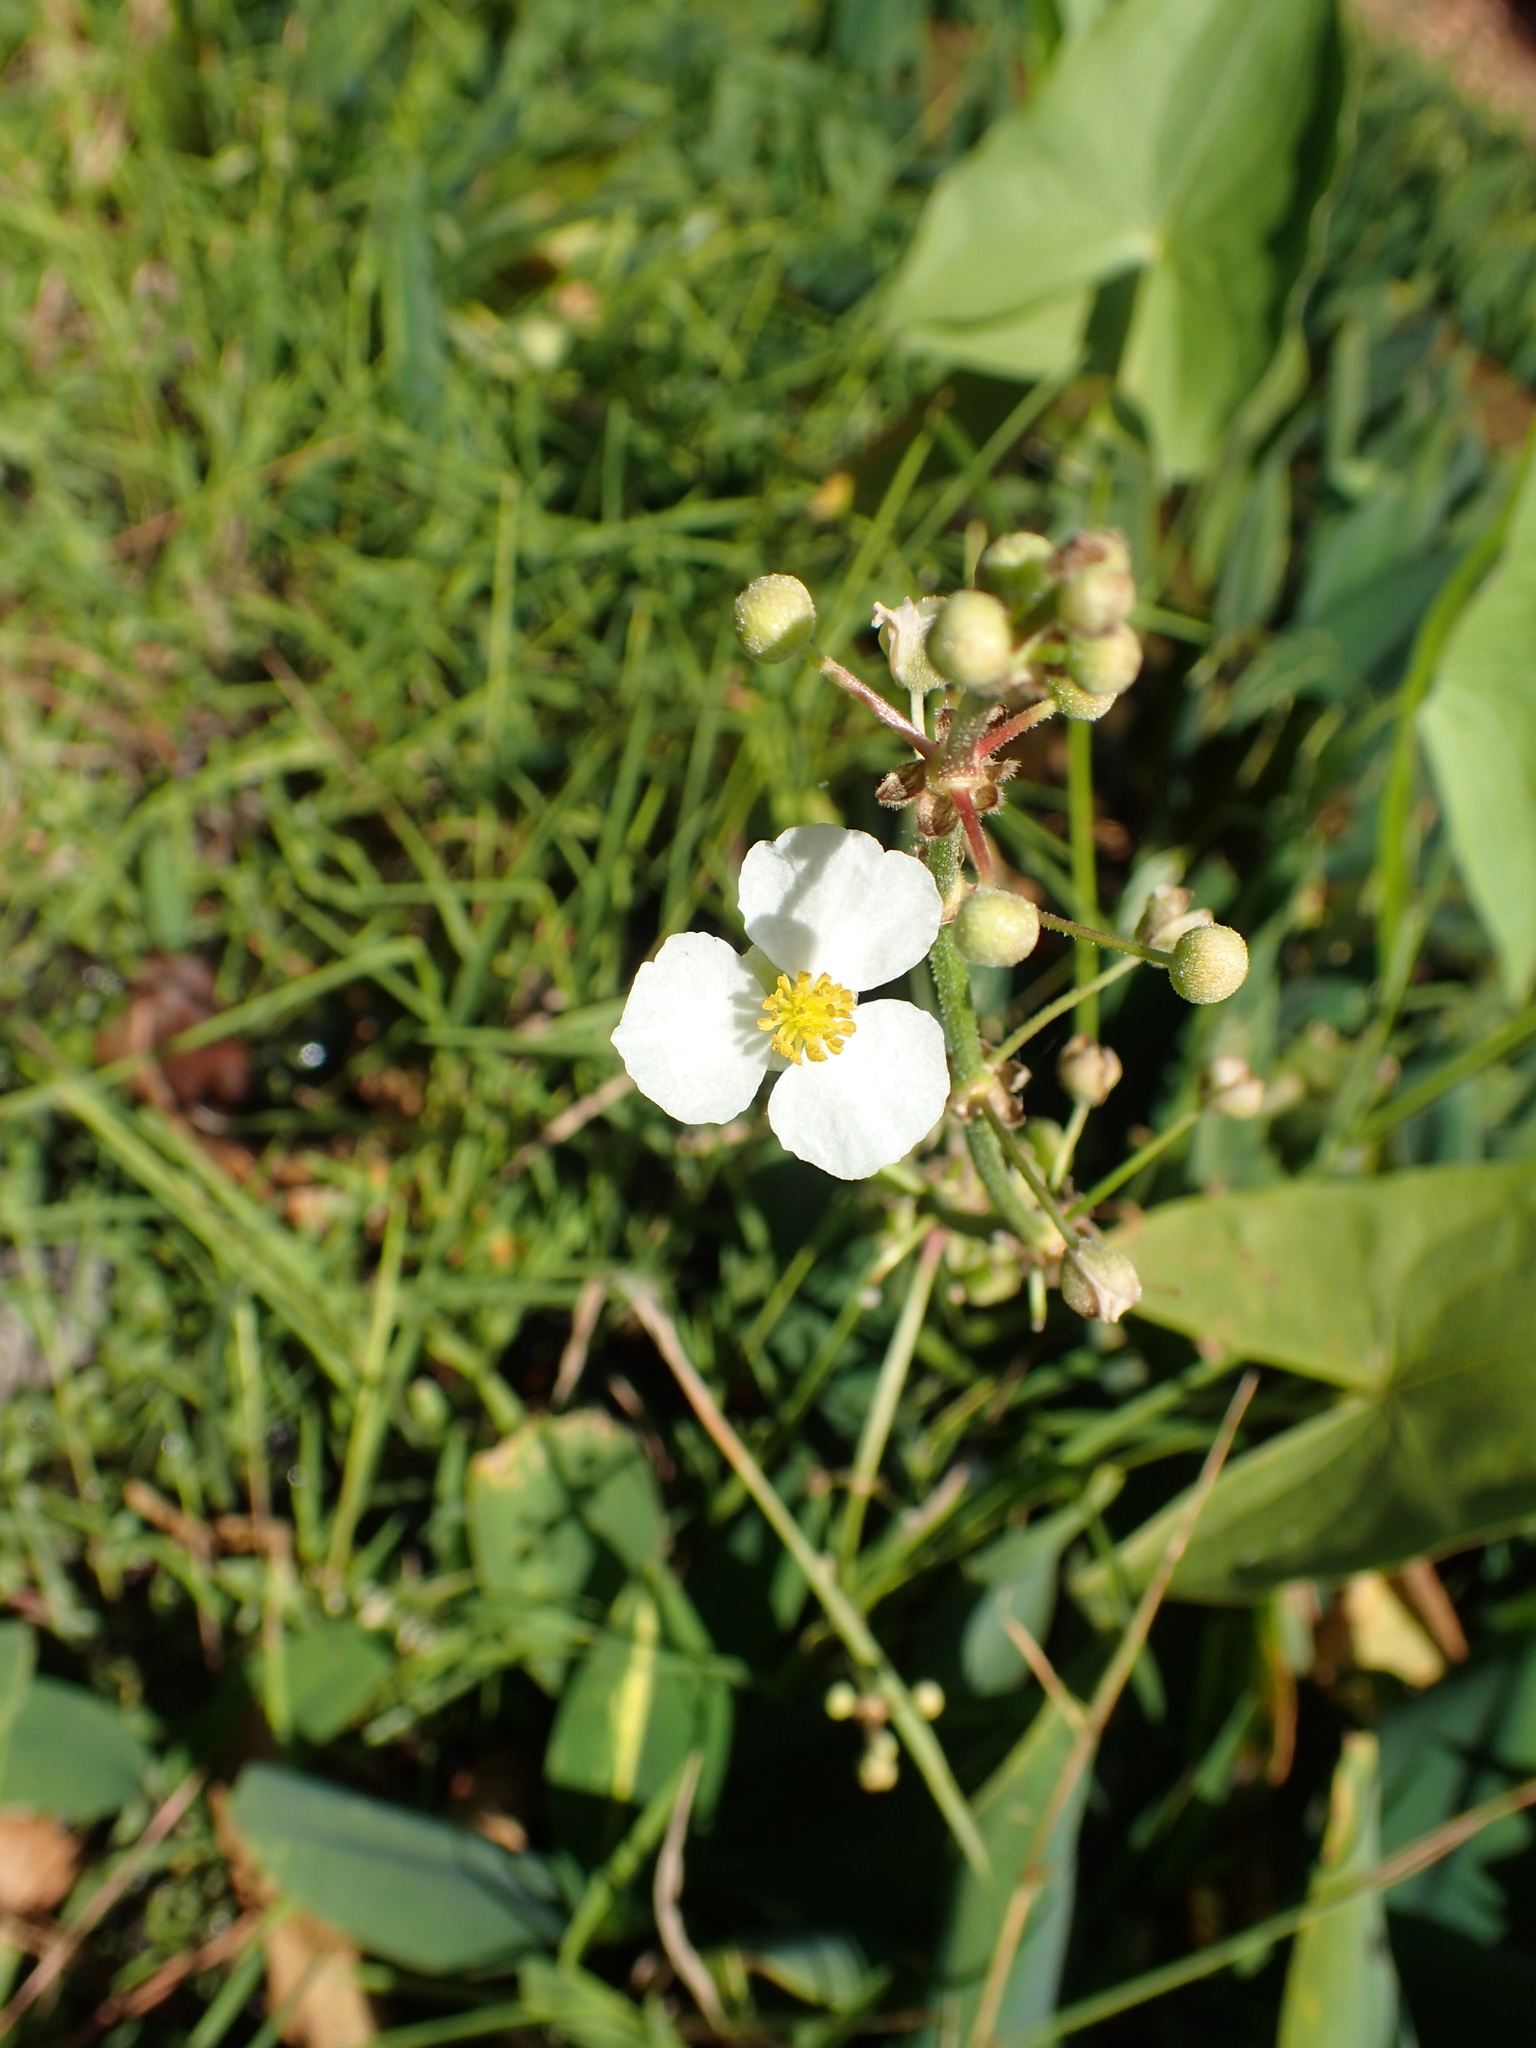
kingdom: Plantae
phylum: Tracheophyta
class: Liliopsida
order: Alismatales
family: Alismataceae
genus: Sagittaria
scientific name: Sagittaria latifolia
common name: Duck-potato
